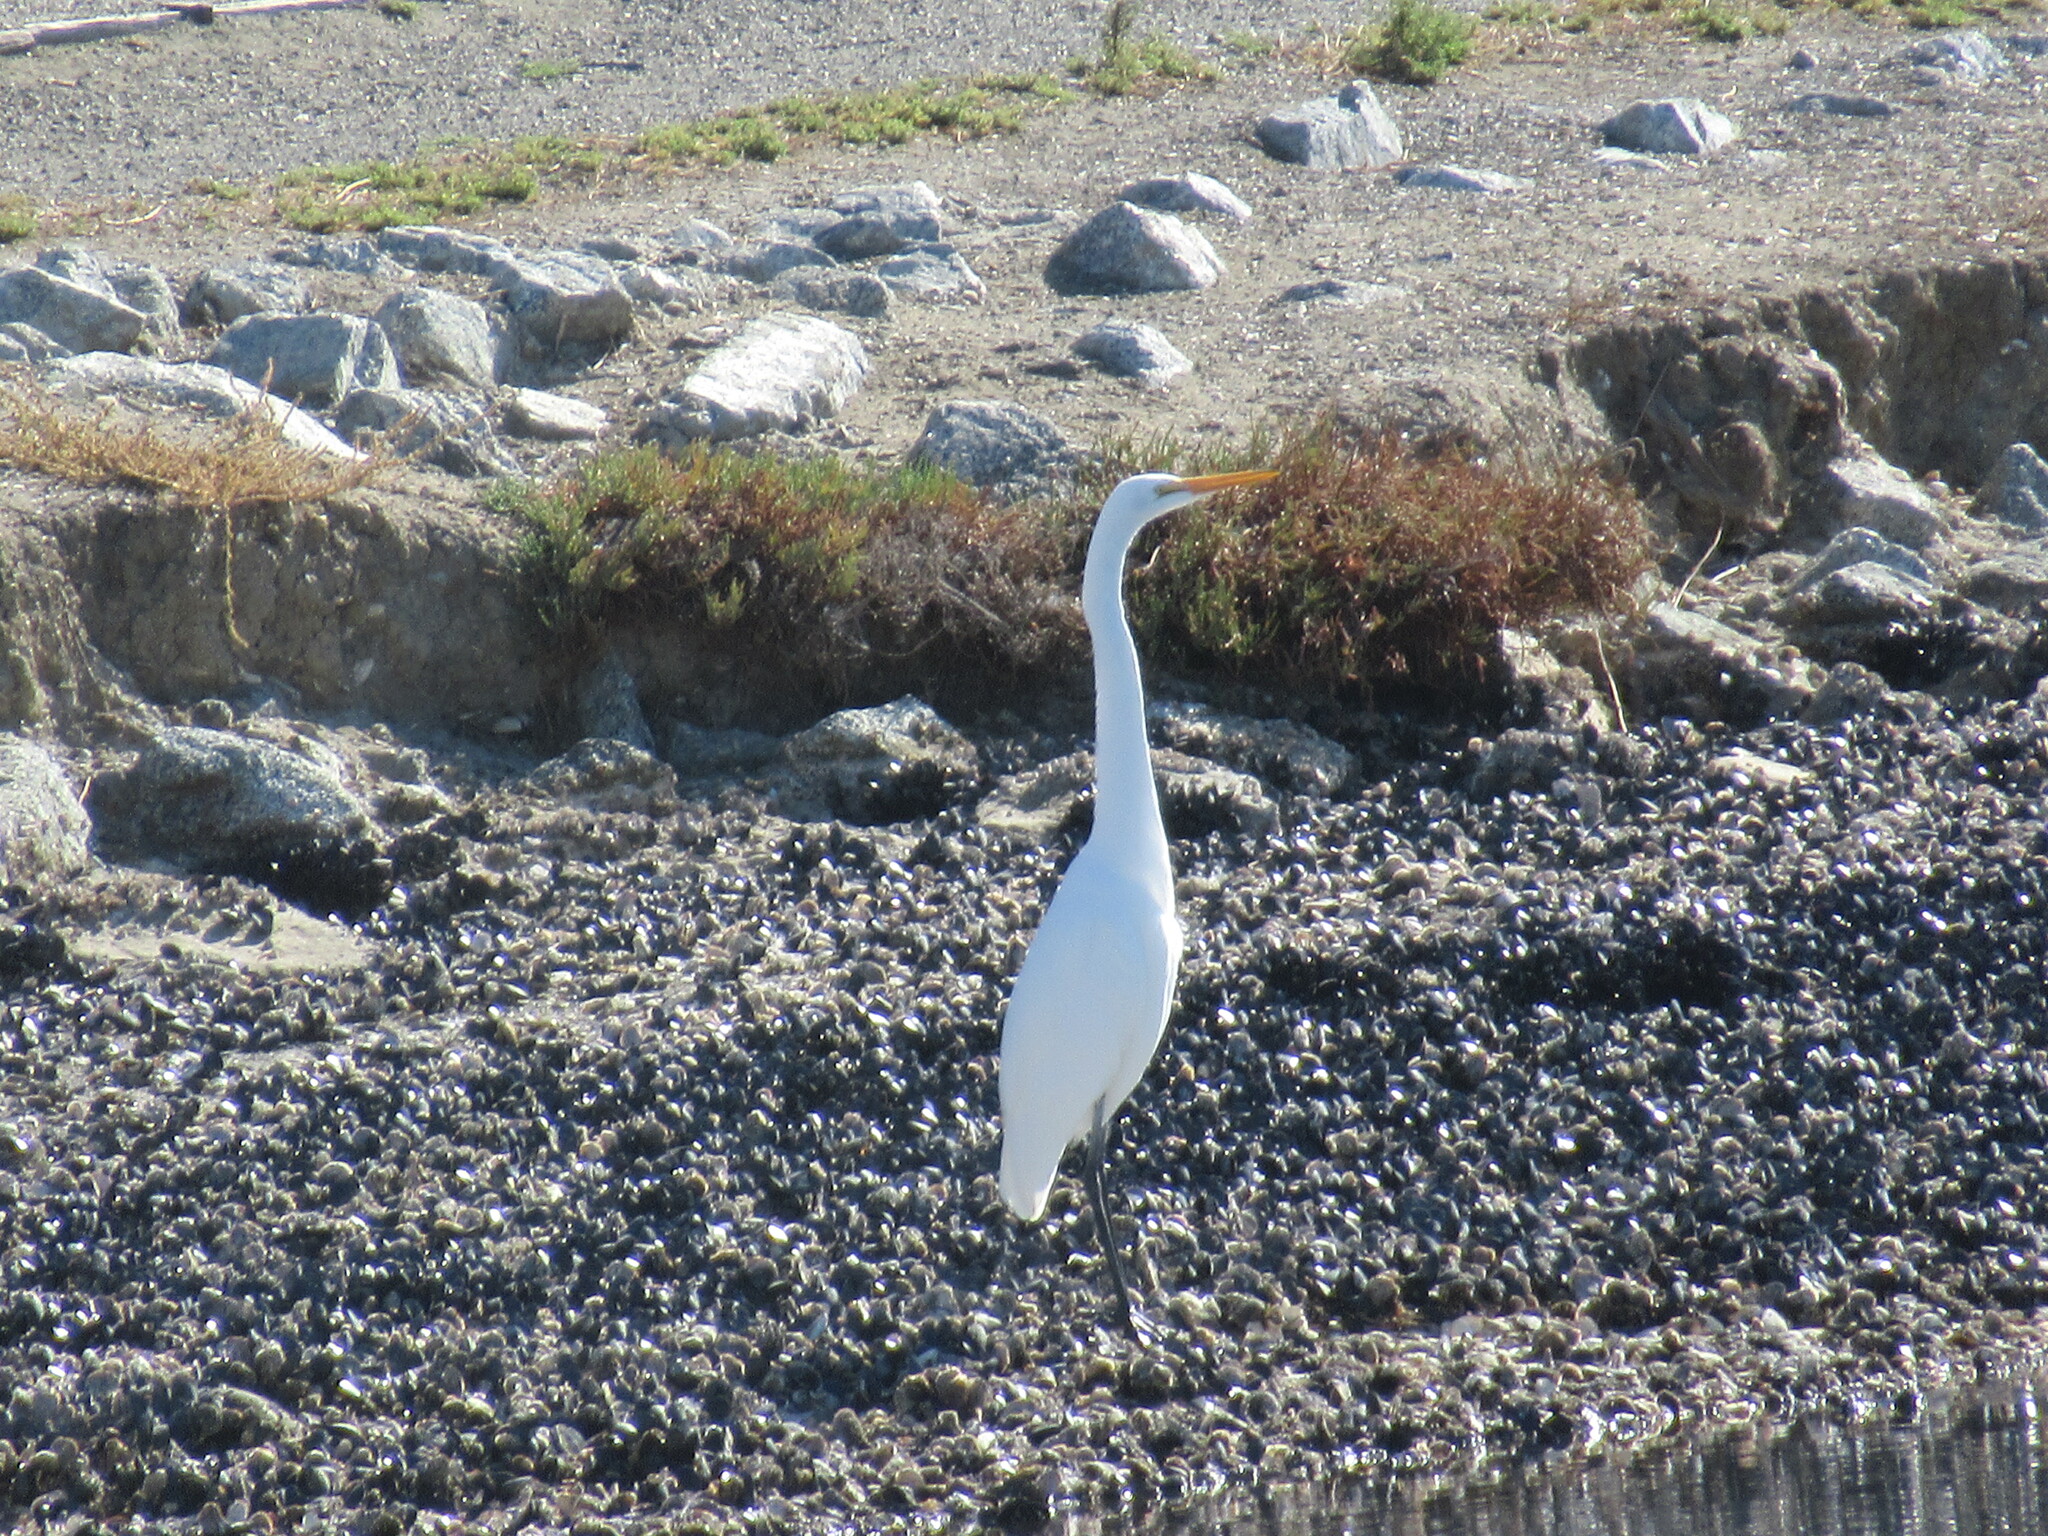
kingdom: Animalia
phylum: Chordata
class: Aves
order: Pelecaniformes
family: Ardeidae
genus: Ardea
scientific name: Ardea alba
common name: Great egret
